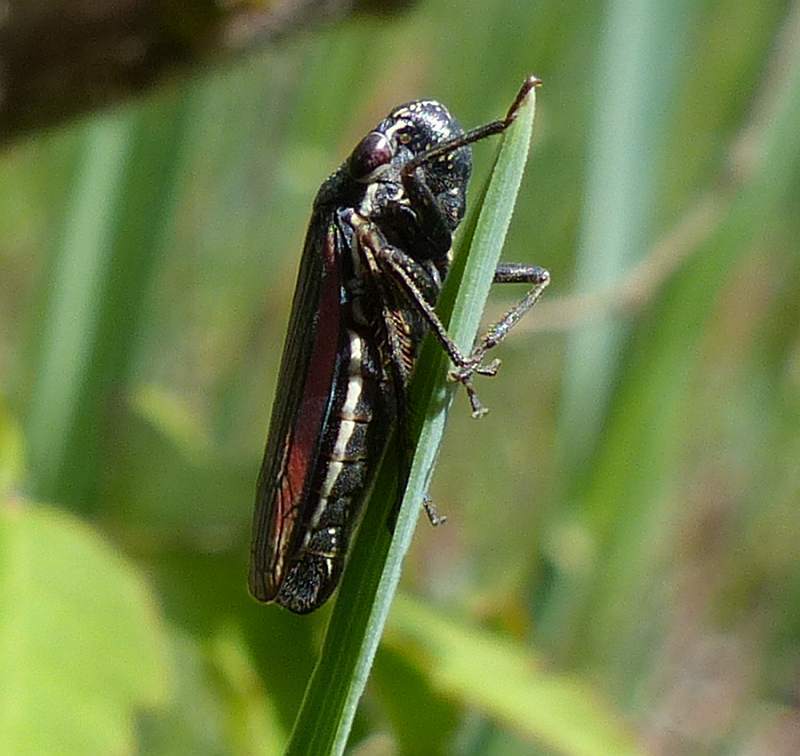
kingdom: Animalia
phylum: Arthropoda
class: Insecta
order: Hemiptera
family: Cicadellidae
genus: Cuerna
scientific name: Cuerna striata
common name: Striped leafhopper
